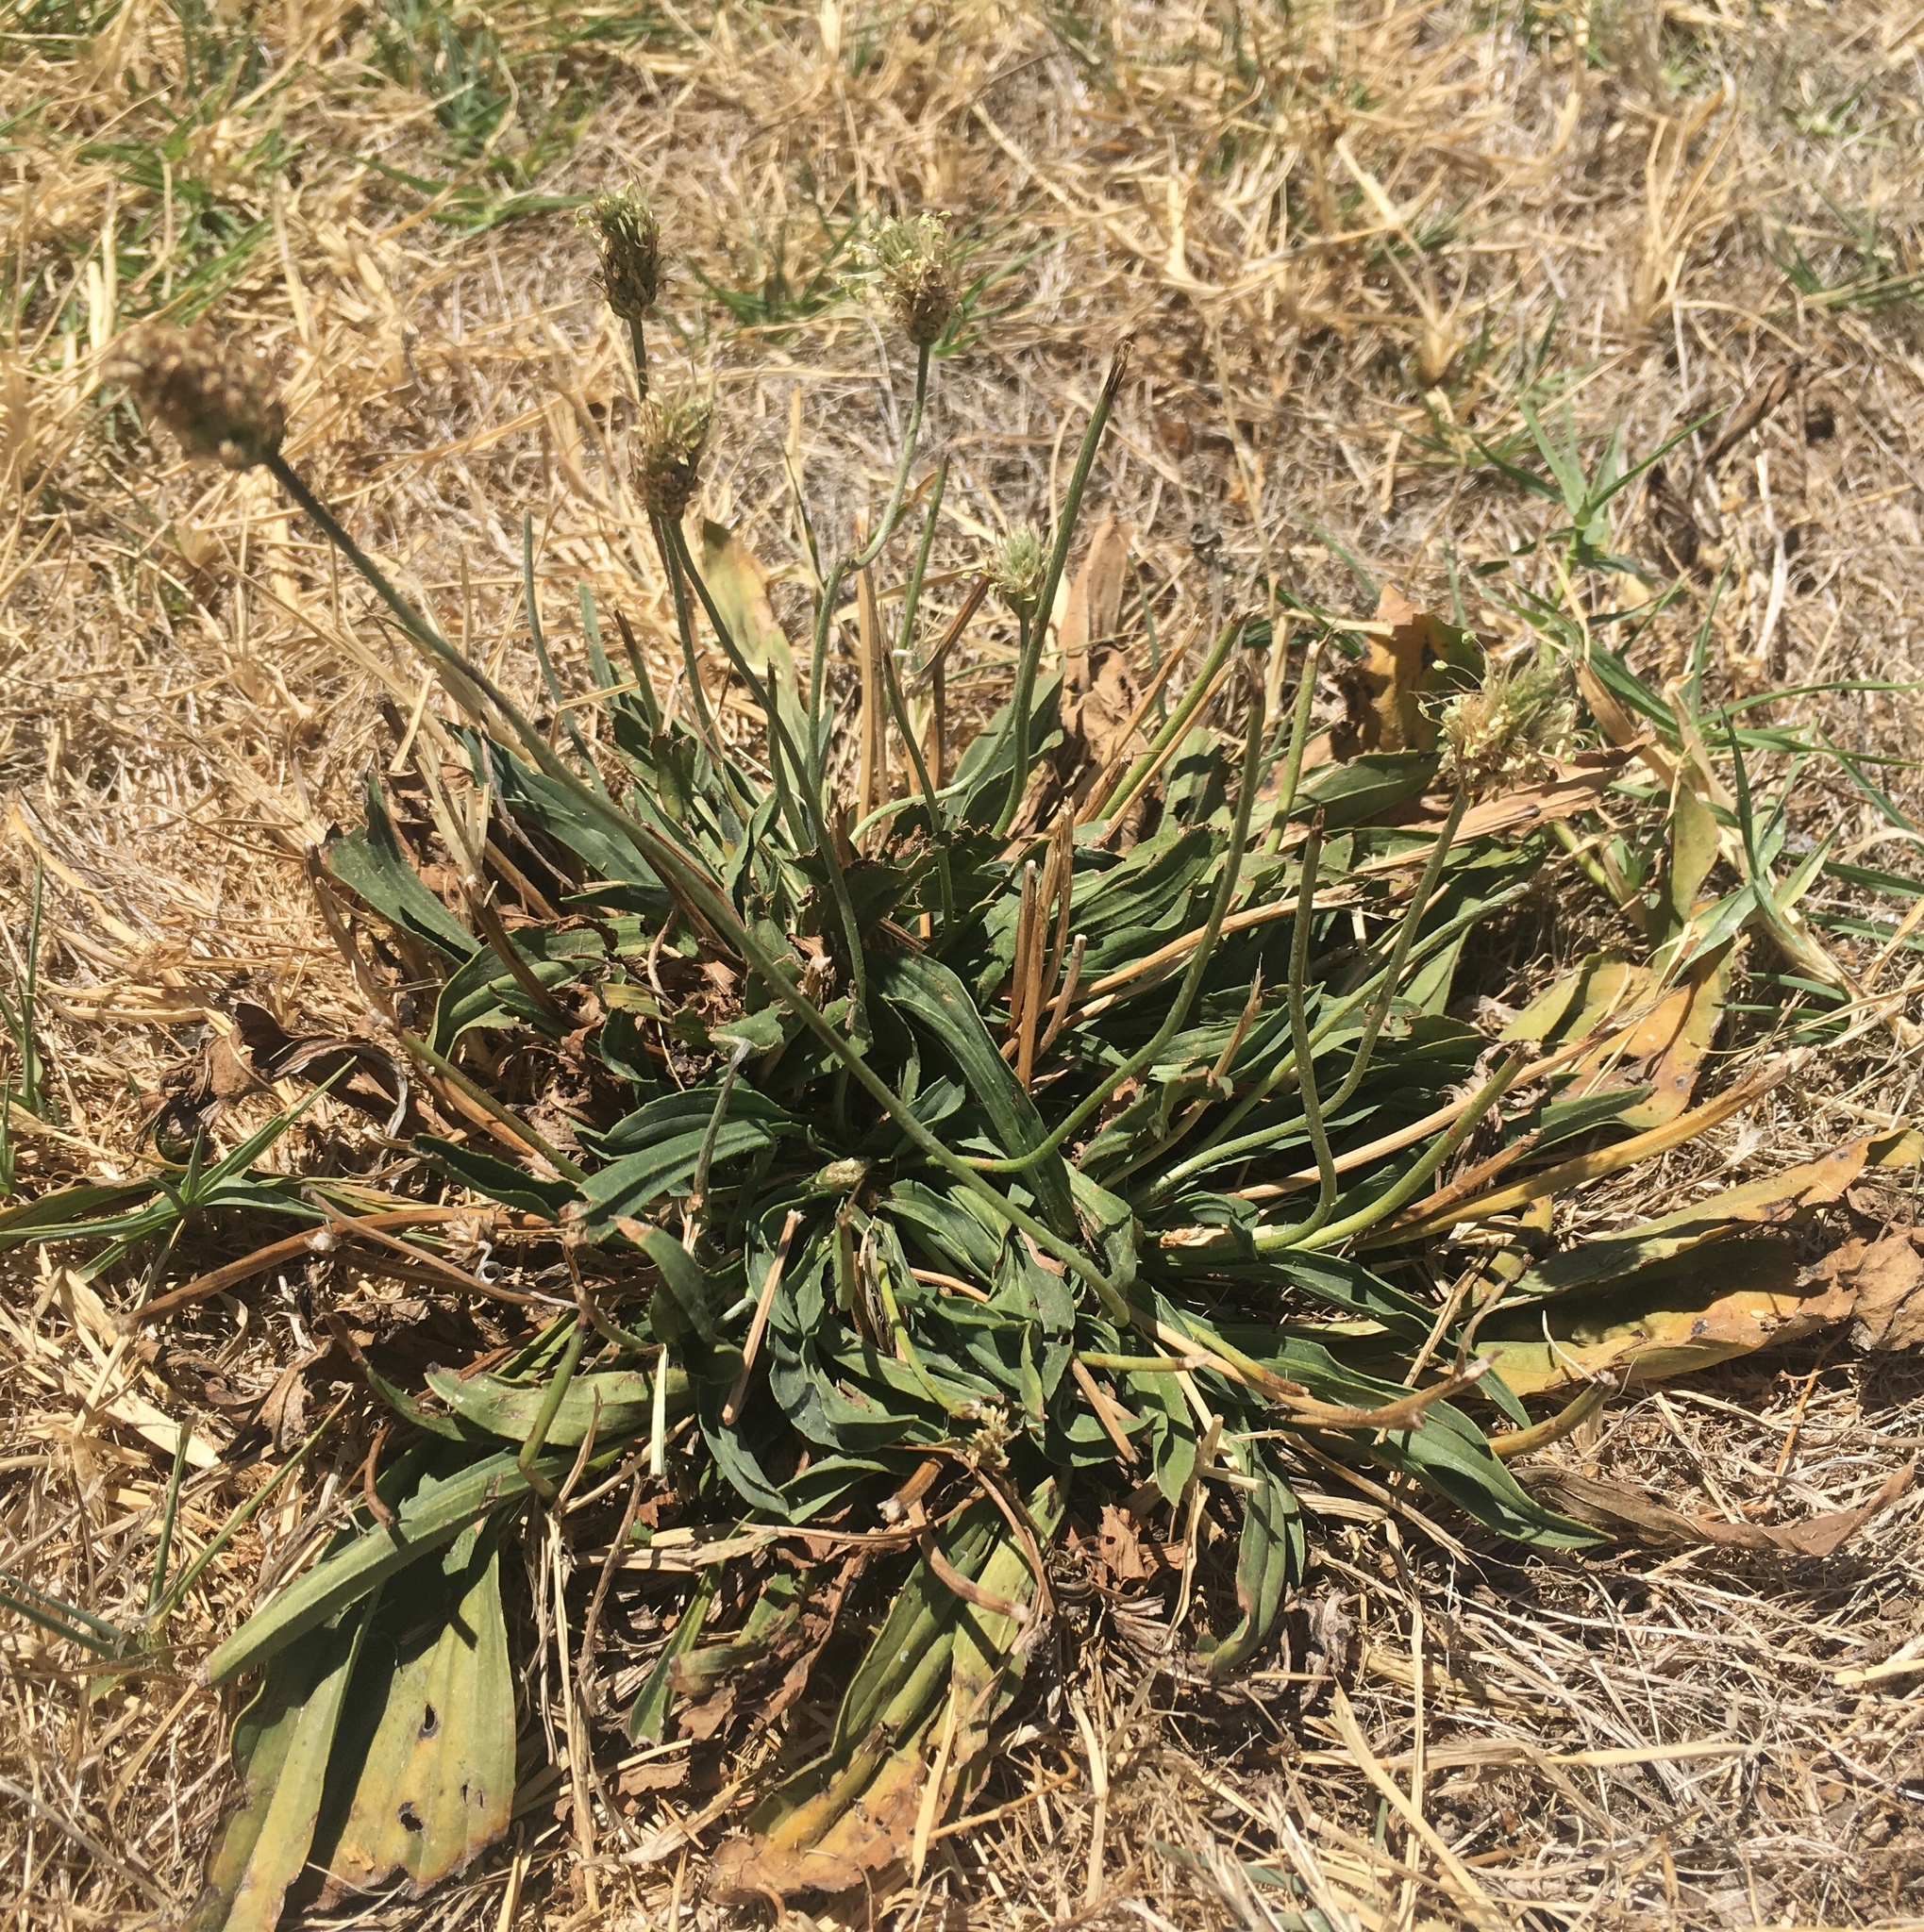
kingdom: Plantae
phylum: Tracheophyta
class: Magnoliopsida
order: Lamiales
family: Plantaginaceae
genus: Plantago
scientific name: Plantago lanceolata
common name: Ribwort plantain
